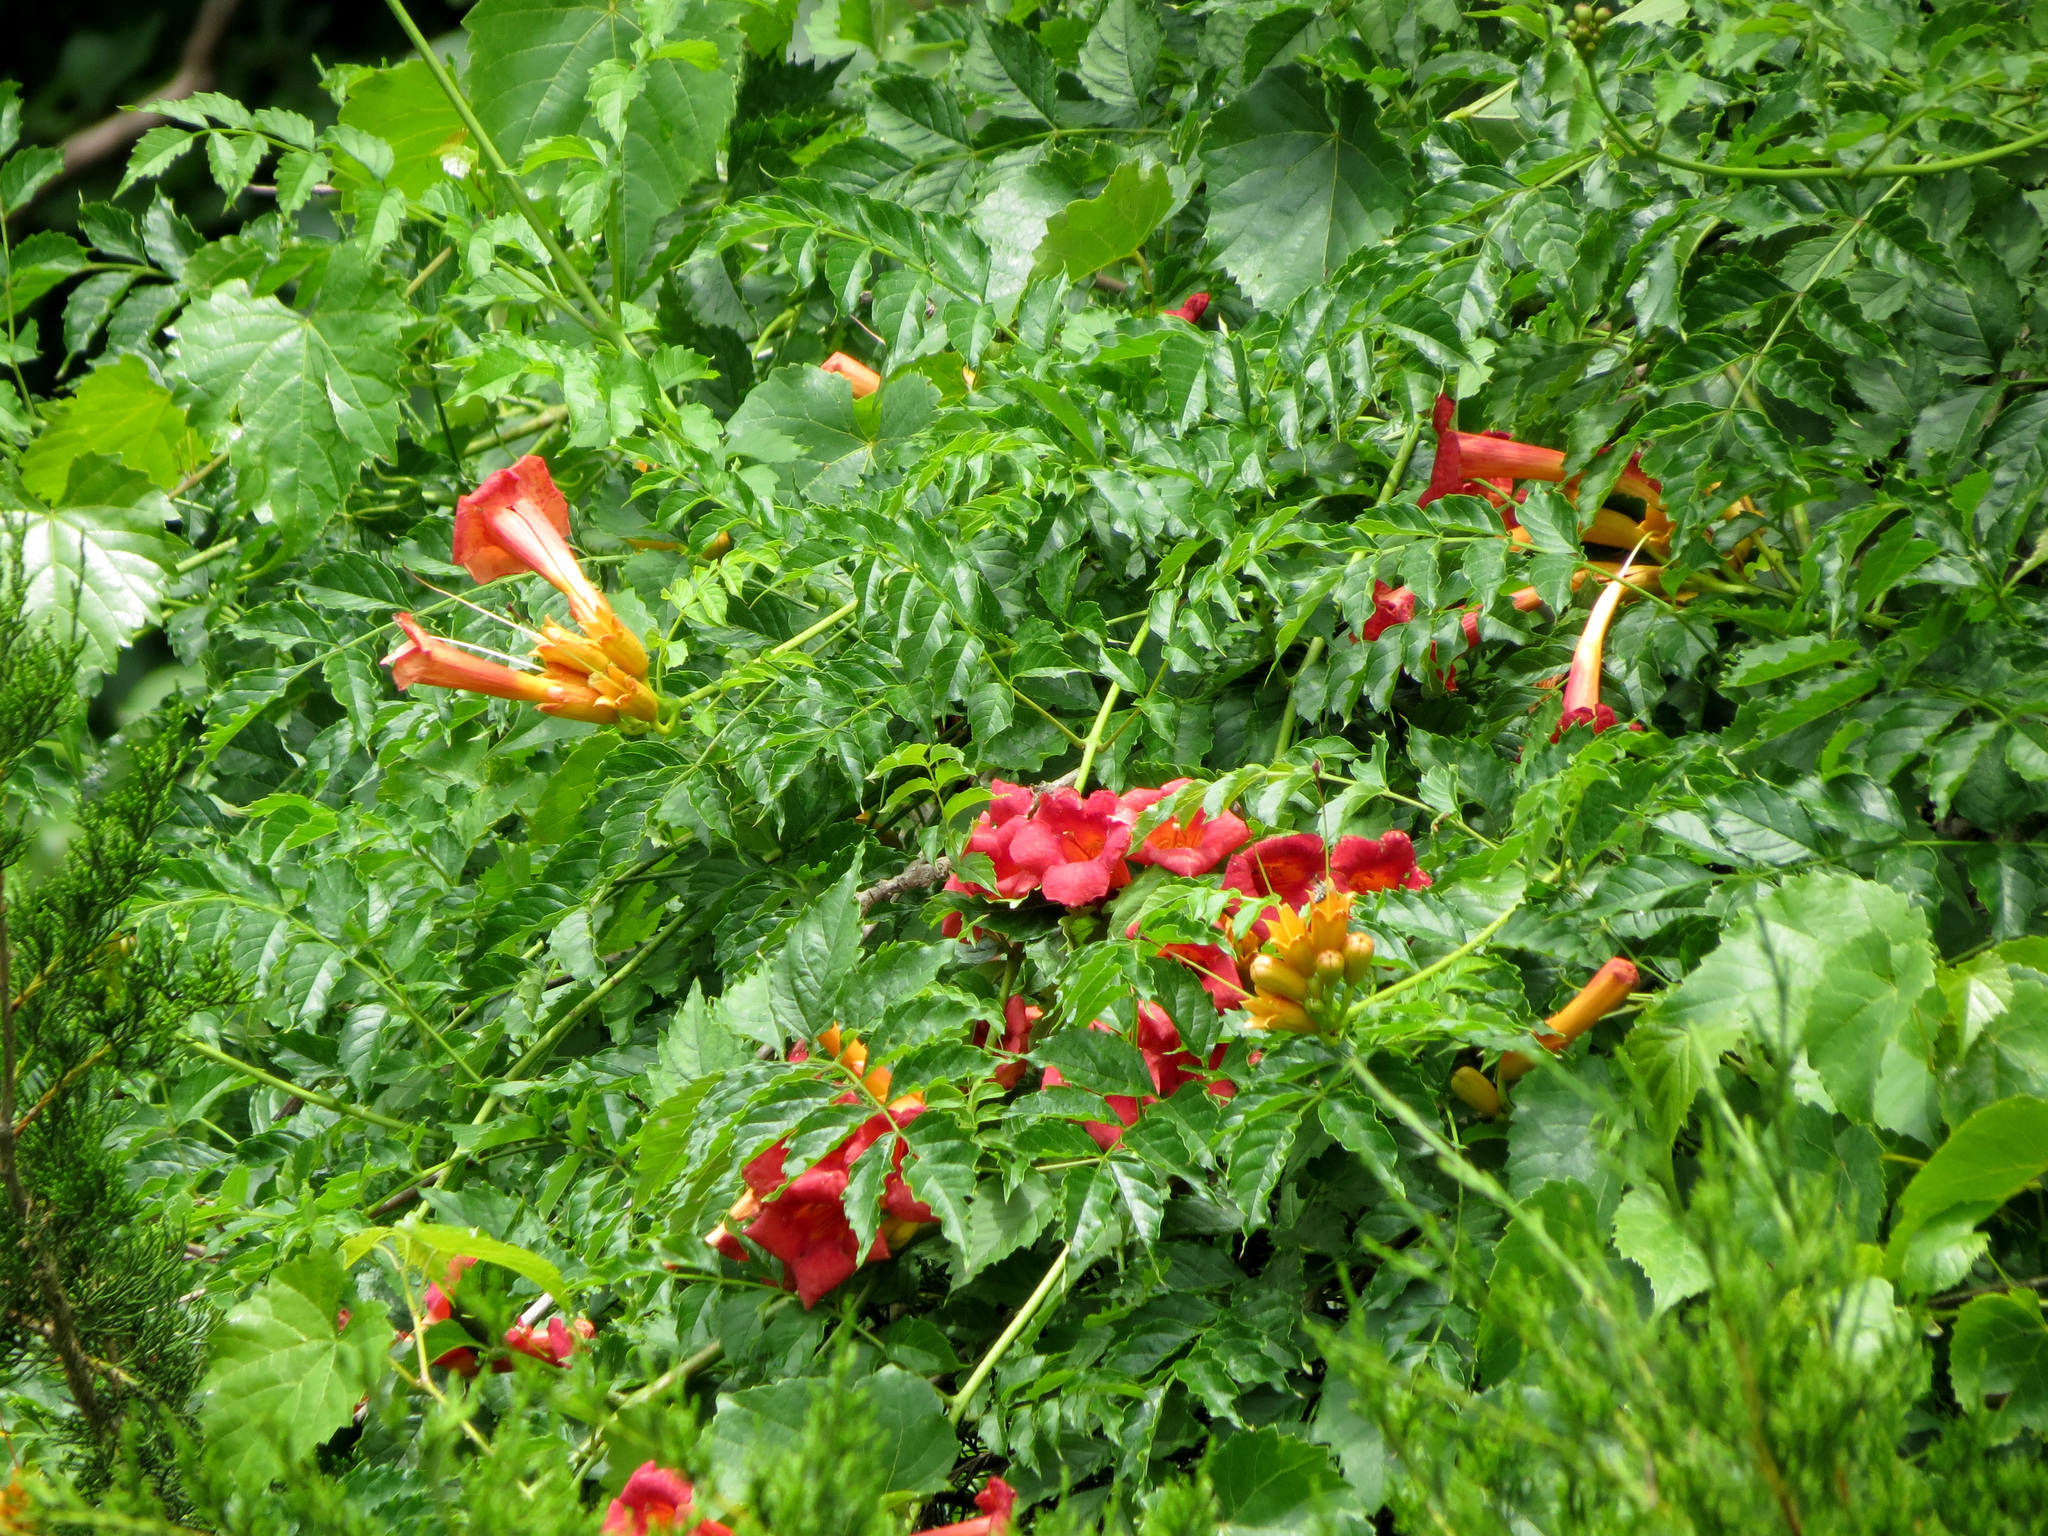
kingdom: Plantae
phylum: Tracheophyta
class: Magnoliopsida
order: Lamiales
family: Bignoniaceae
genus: Campsis
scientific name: Campsis radicans
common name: Trumpet-creeper
